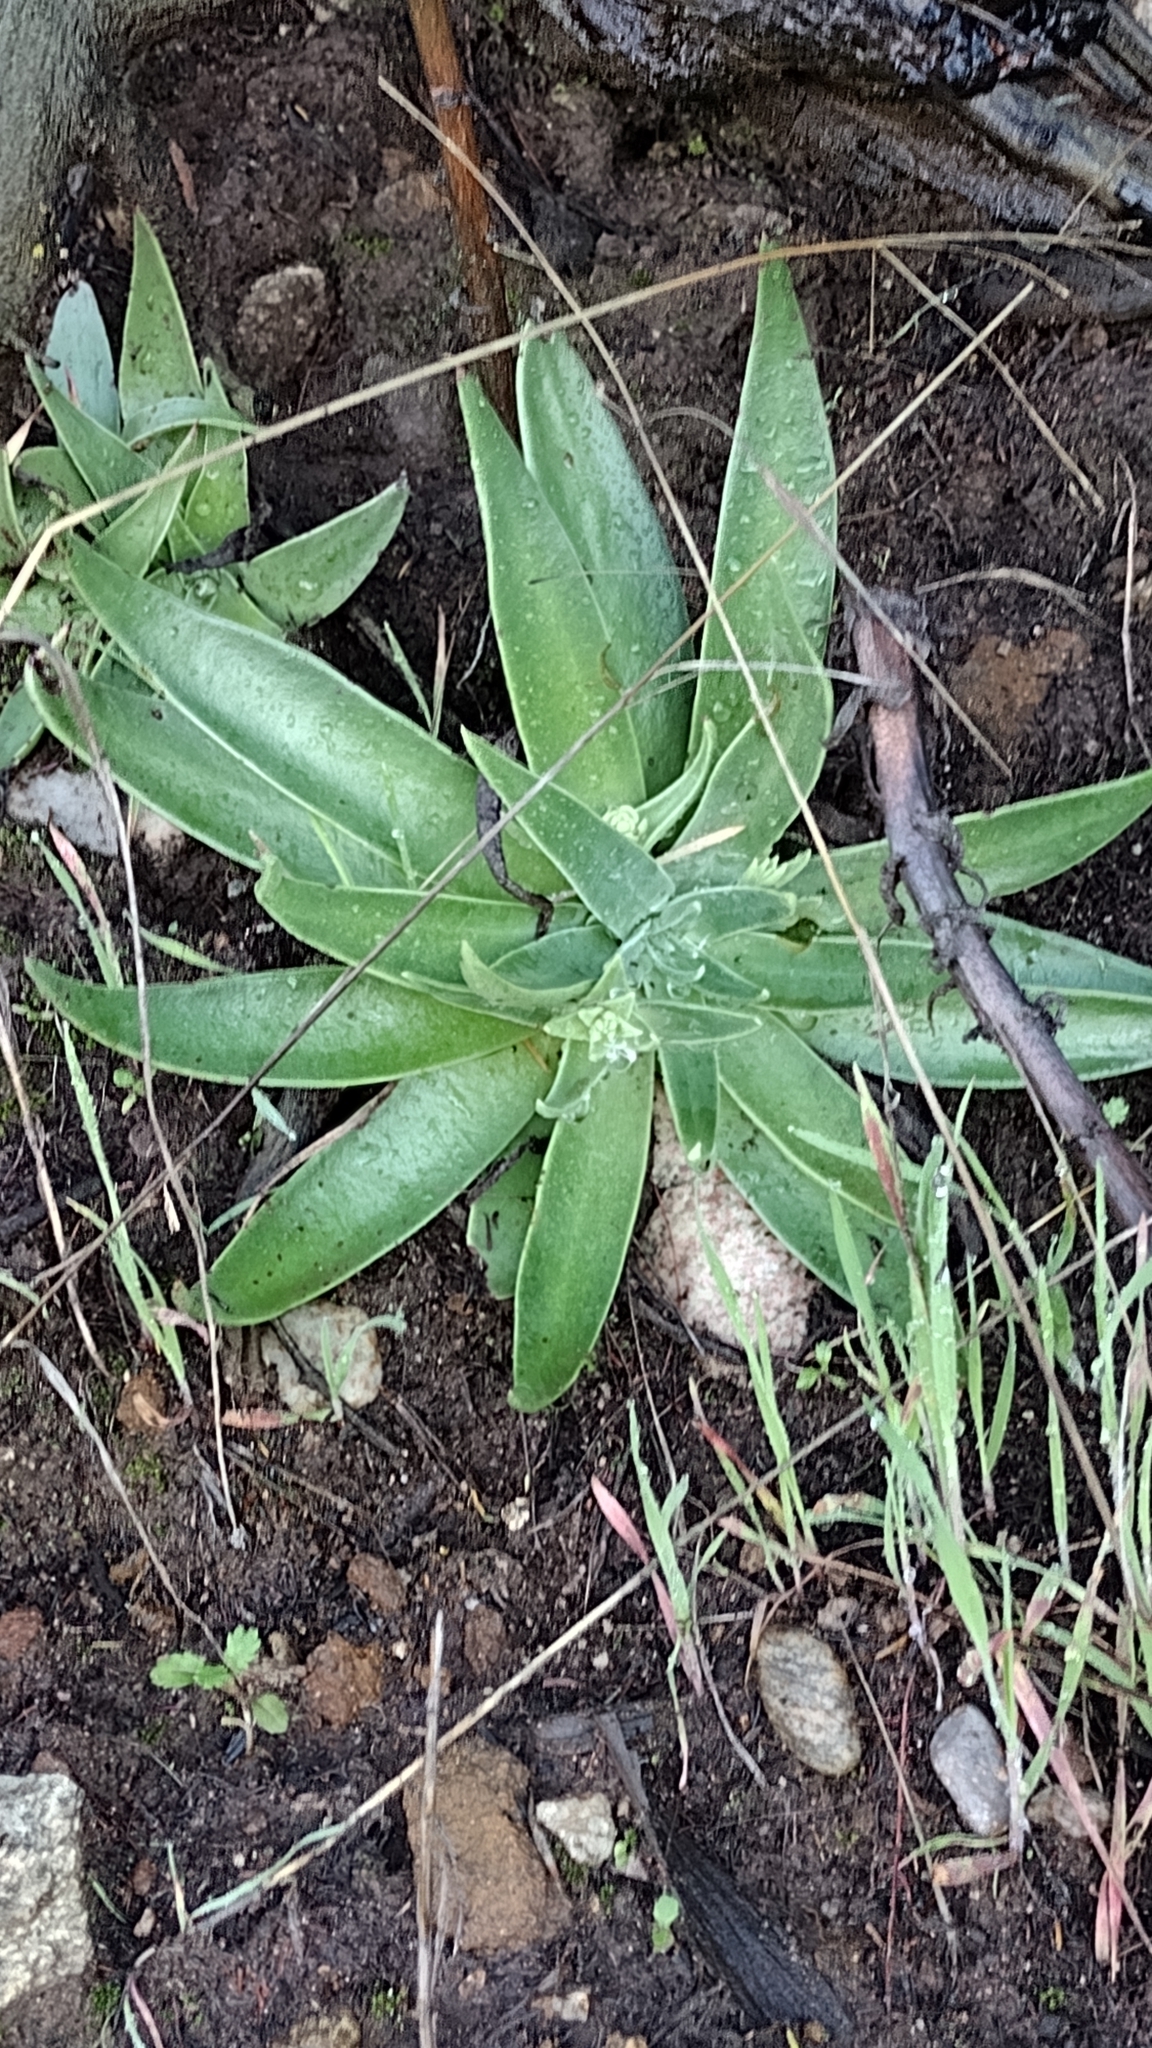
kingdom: Plantae
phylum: Tracheophyta
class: Magnoliopsida
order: Saxifragales
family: Crassulaceae
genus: Dudleya
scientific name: Dudleya lanceolata
